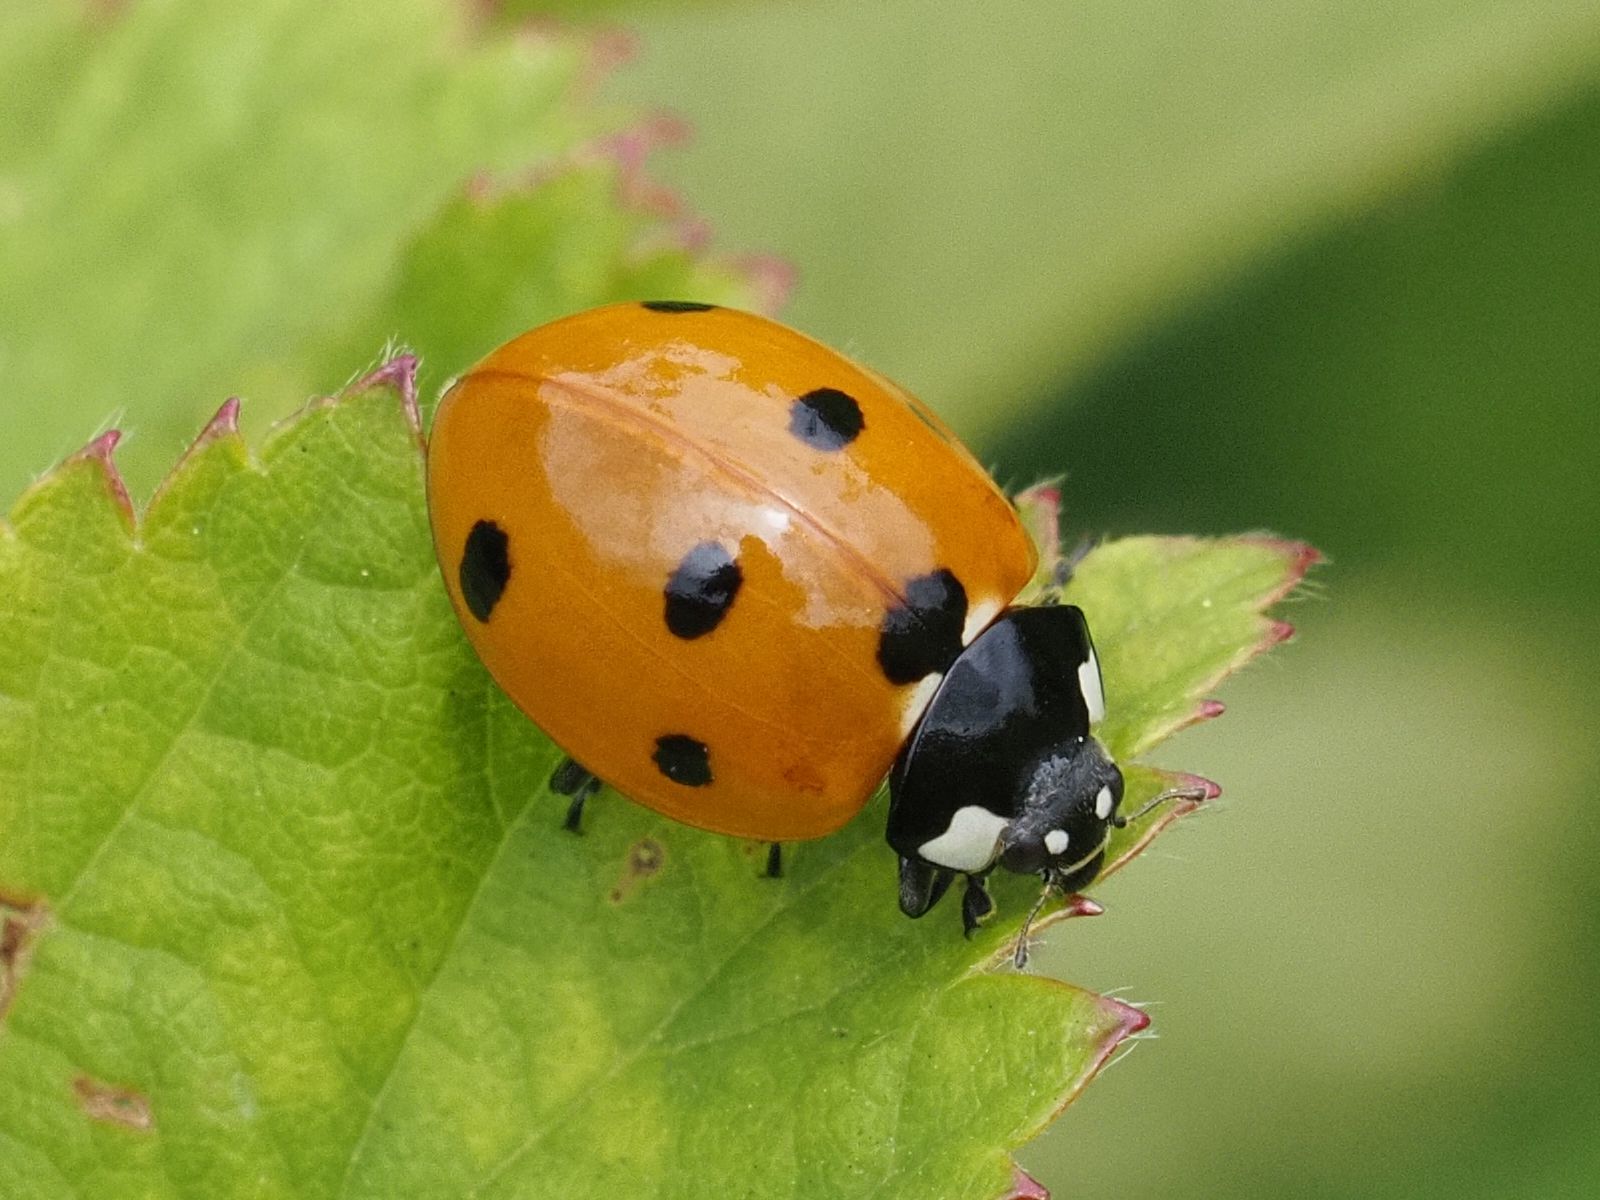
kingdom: Animalia
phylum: Arthropoda
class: Insecta
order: Coleoptera
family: Coccinellidae
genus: Coccinella
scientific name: Coccinella septempunctata
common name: Sevenspotted lady beetle
